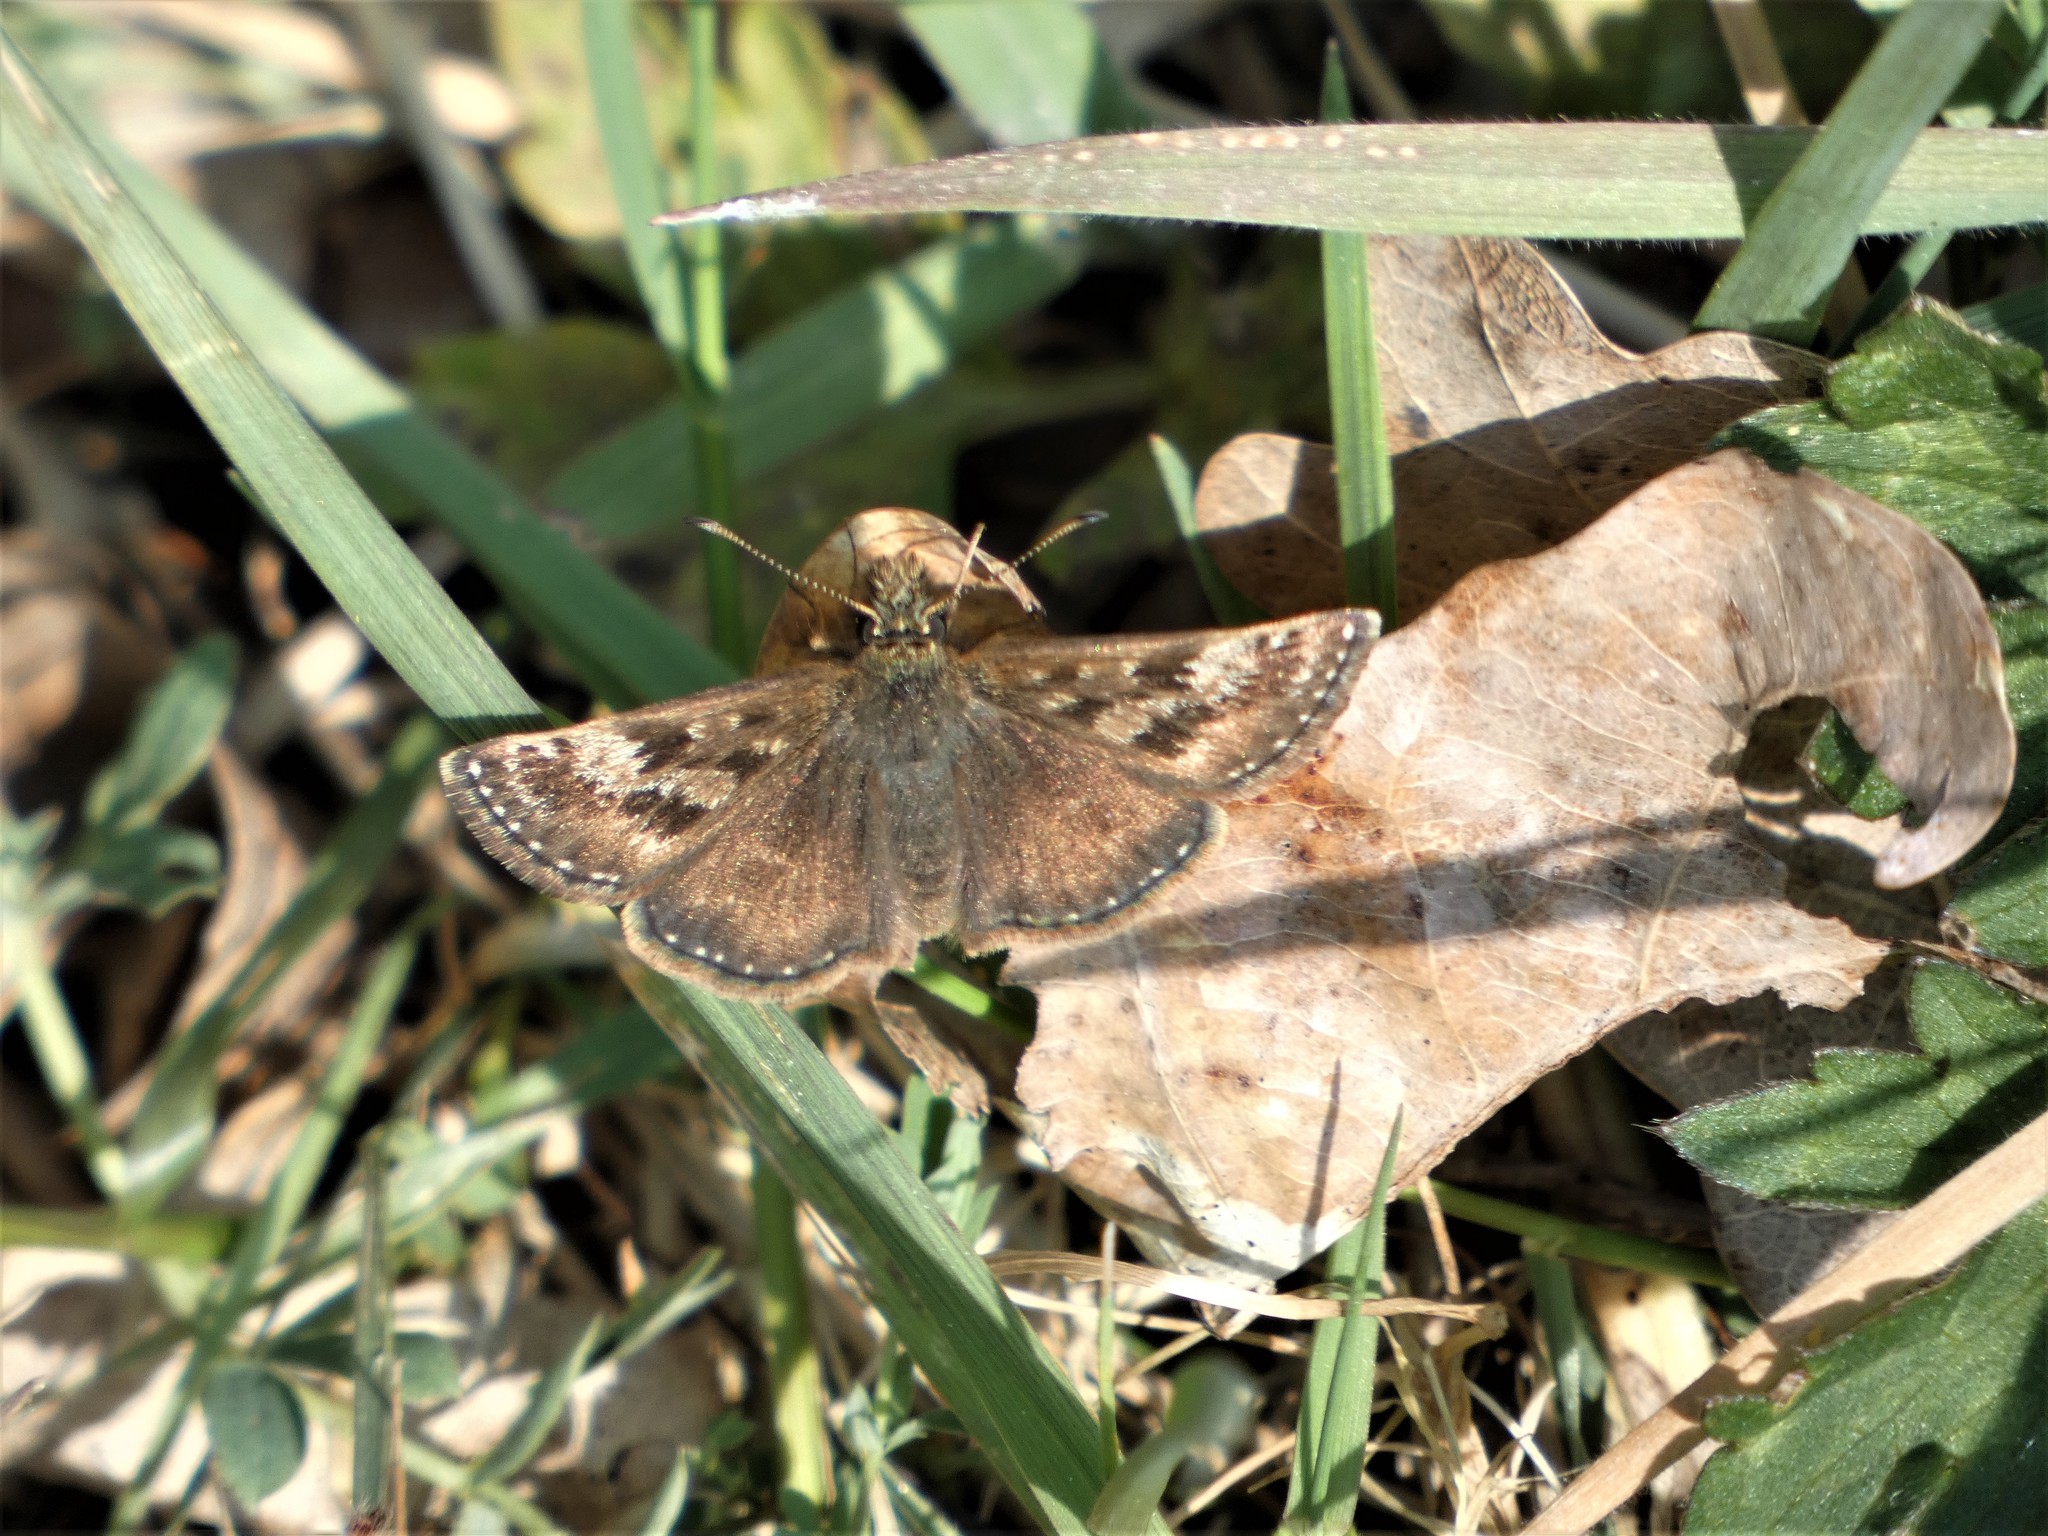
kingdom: Animalia
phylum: Arthropoda
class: Insecta
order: Lepidoptera
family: Hesperiidae
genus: Erynnis
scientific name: Erynnis tages
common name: Dingy skipper
